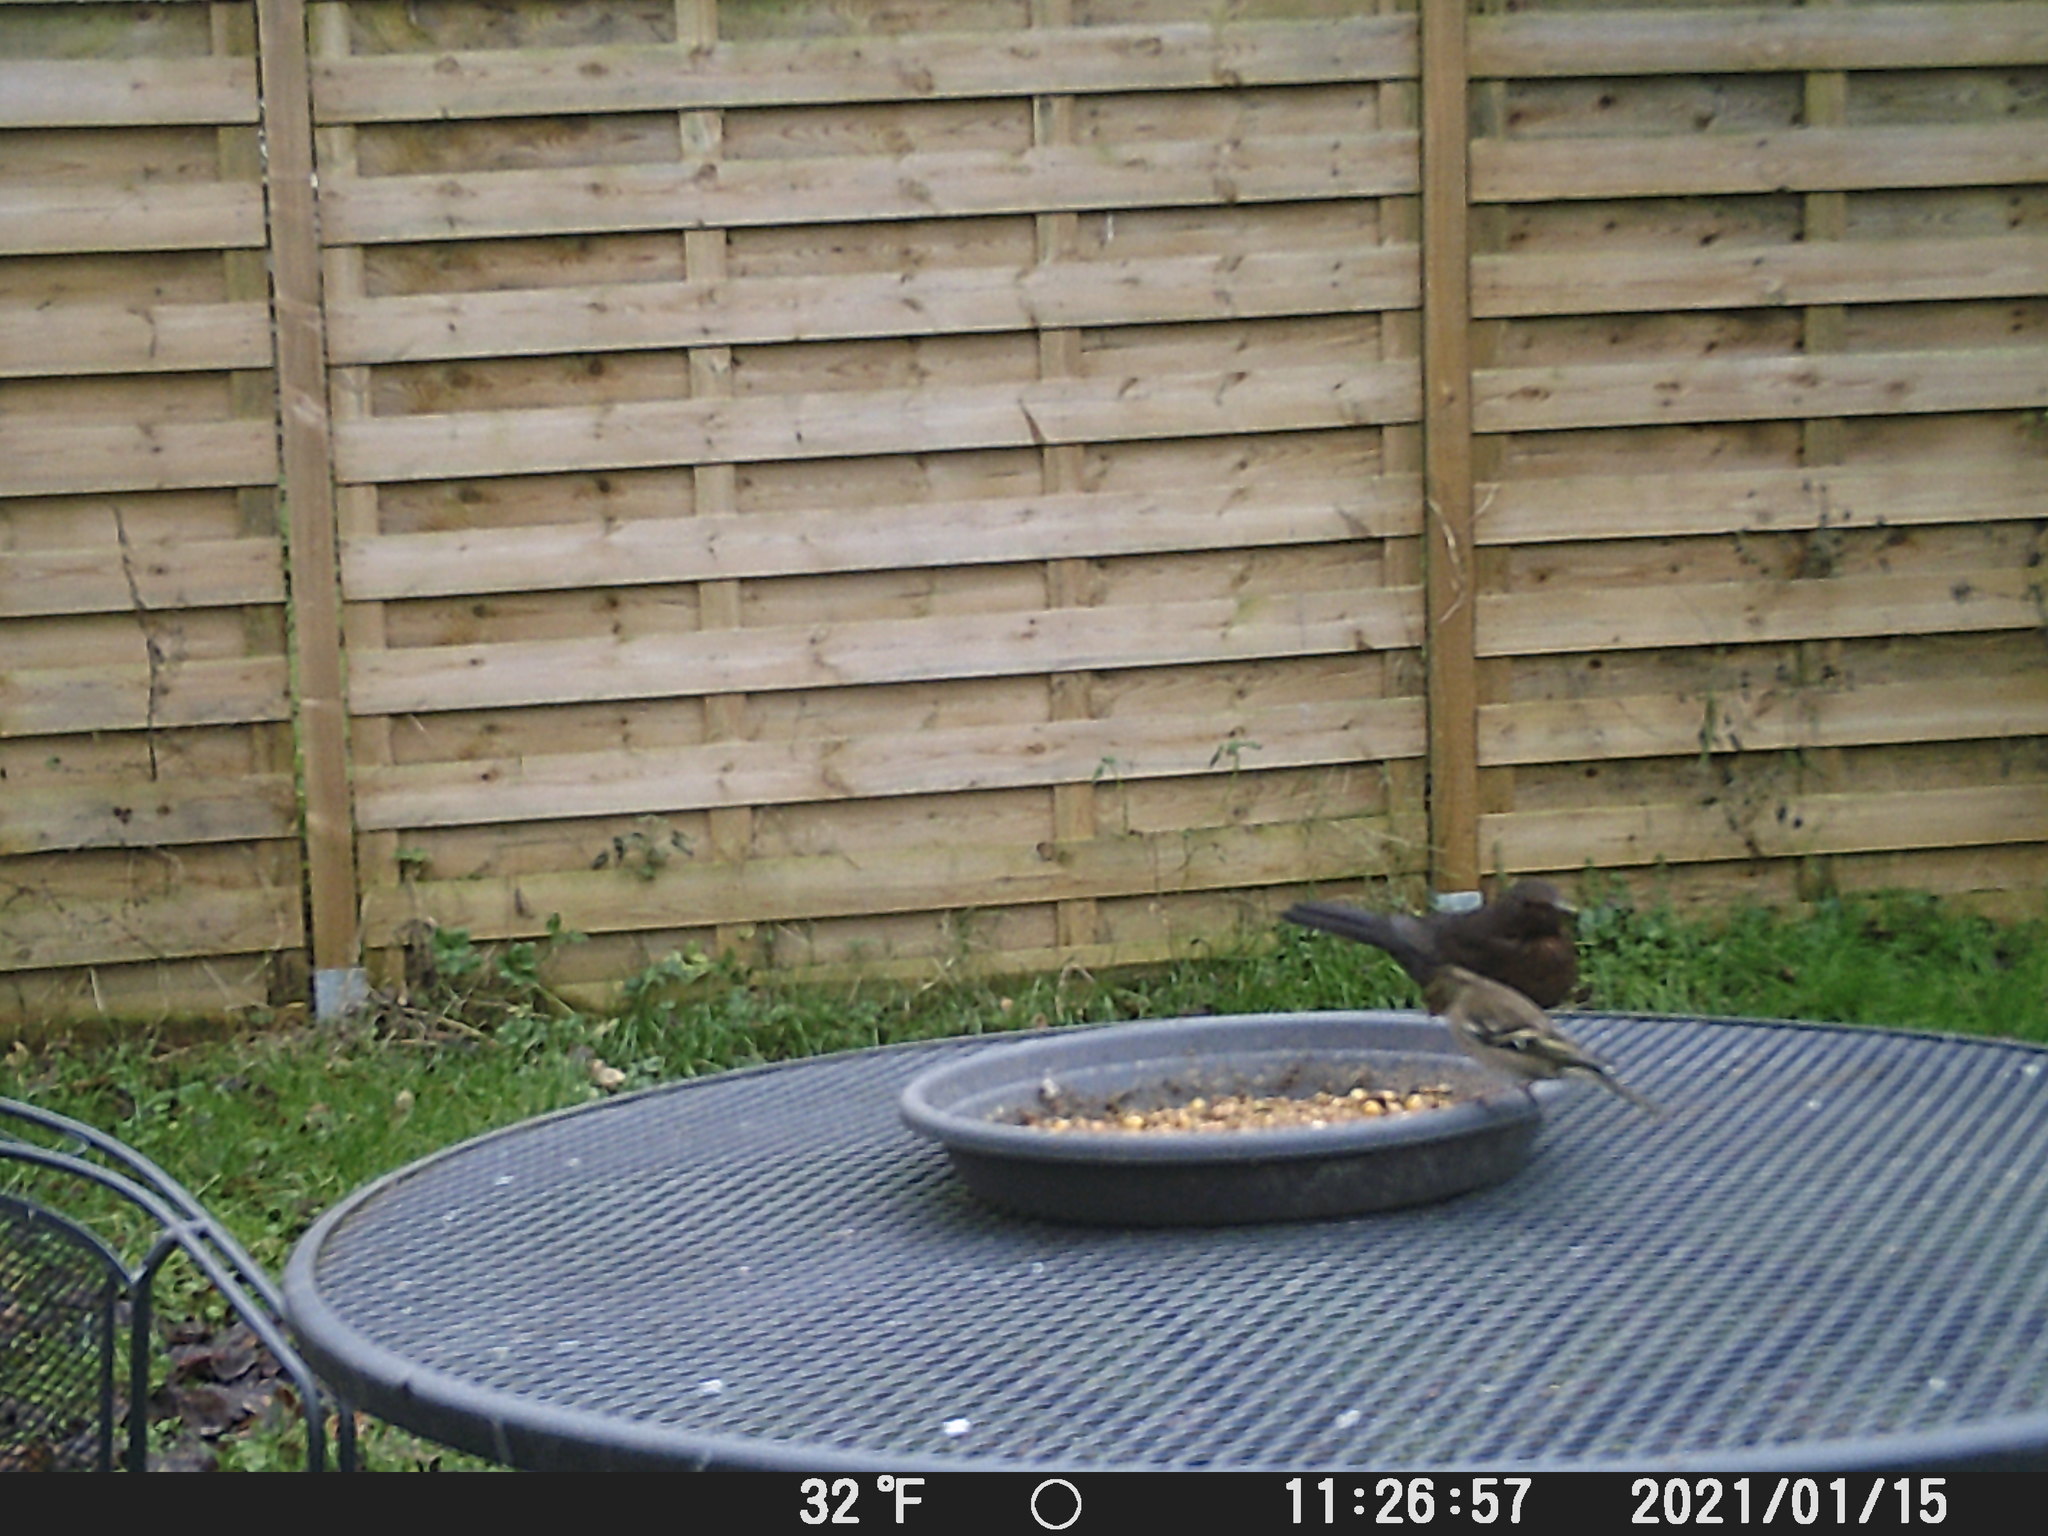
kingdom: Animalia
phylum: Chordata
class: Aves
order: Passeriformes
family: Fringillidae
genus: Fringilla
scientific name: Fringilla coelebs
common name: Common chaffinch
